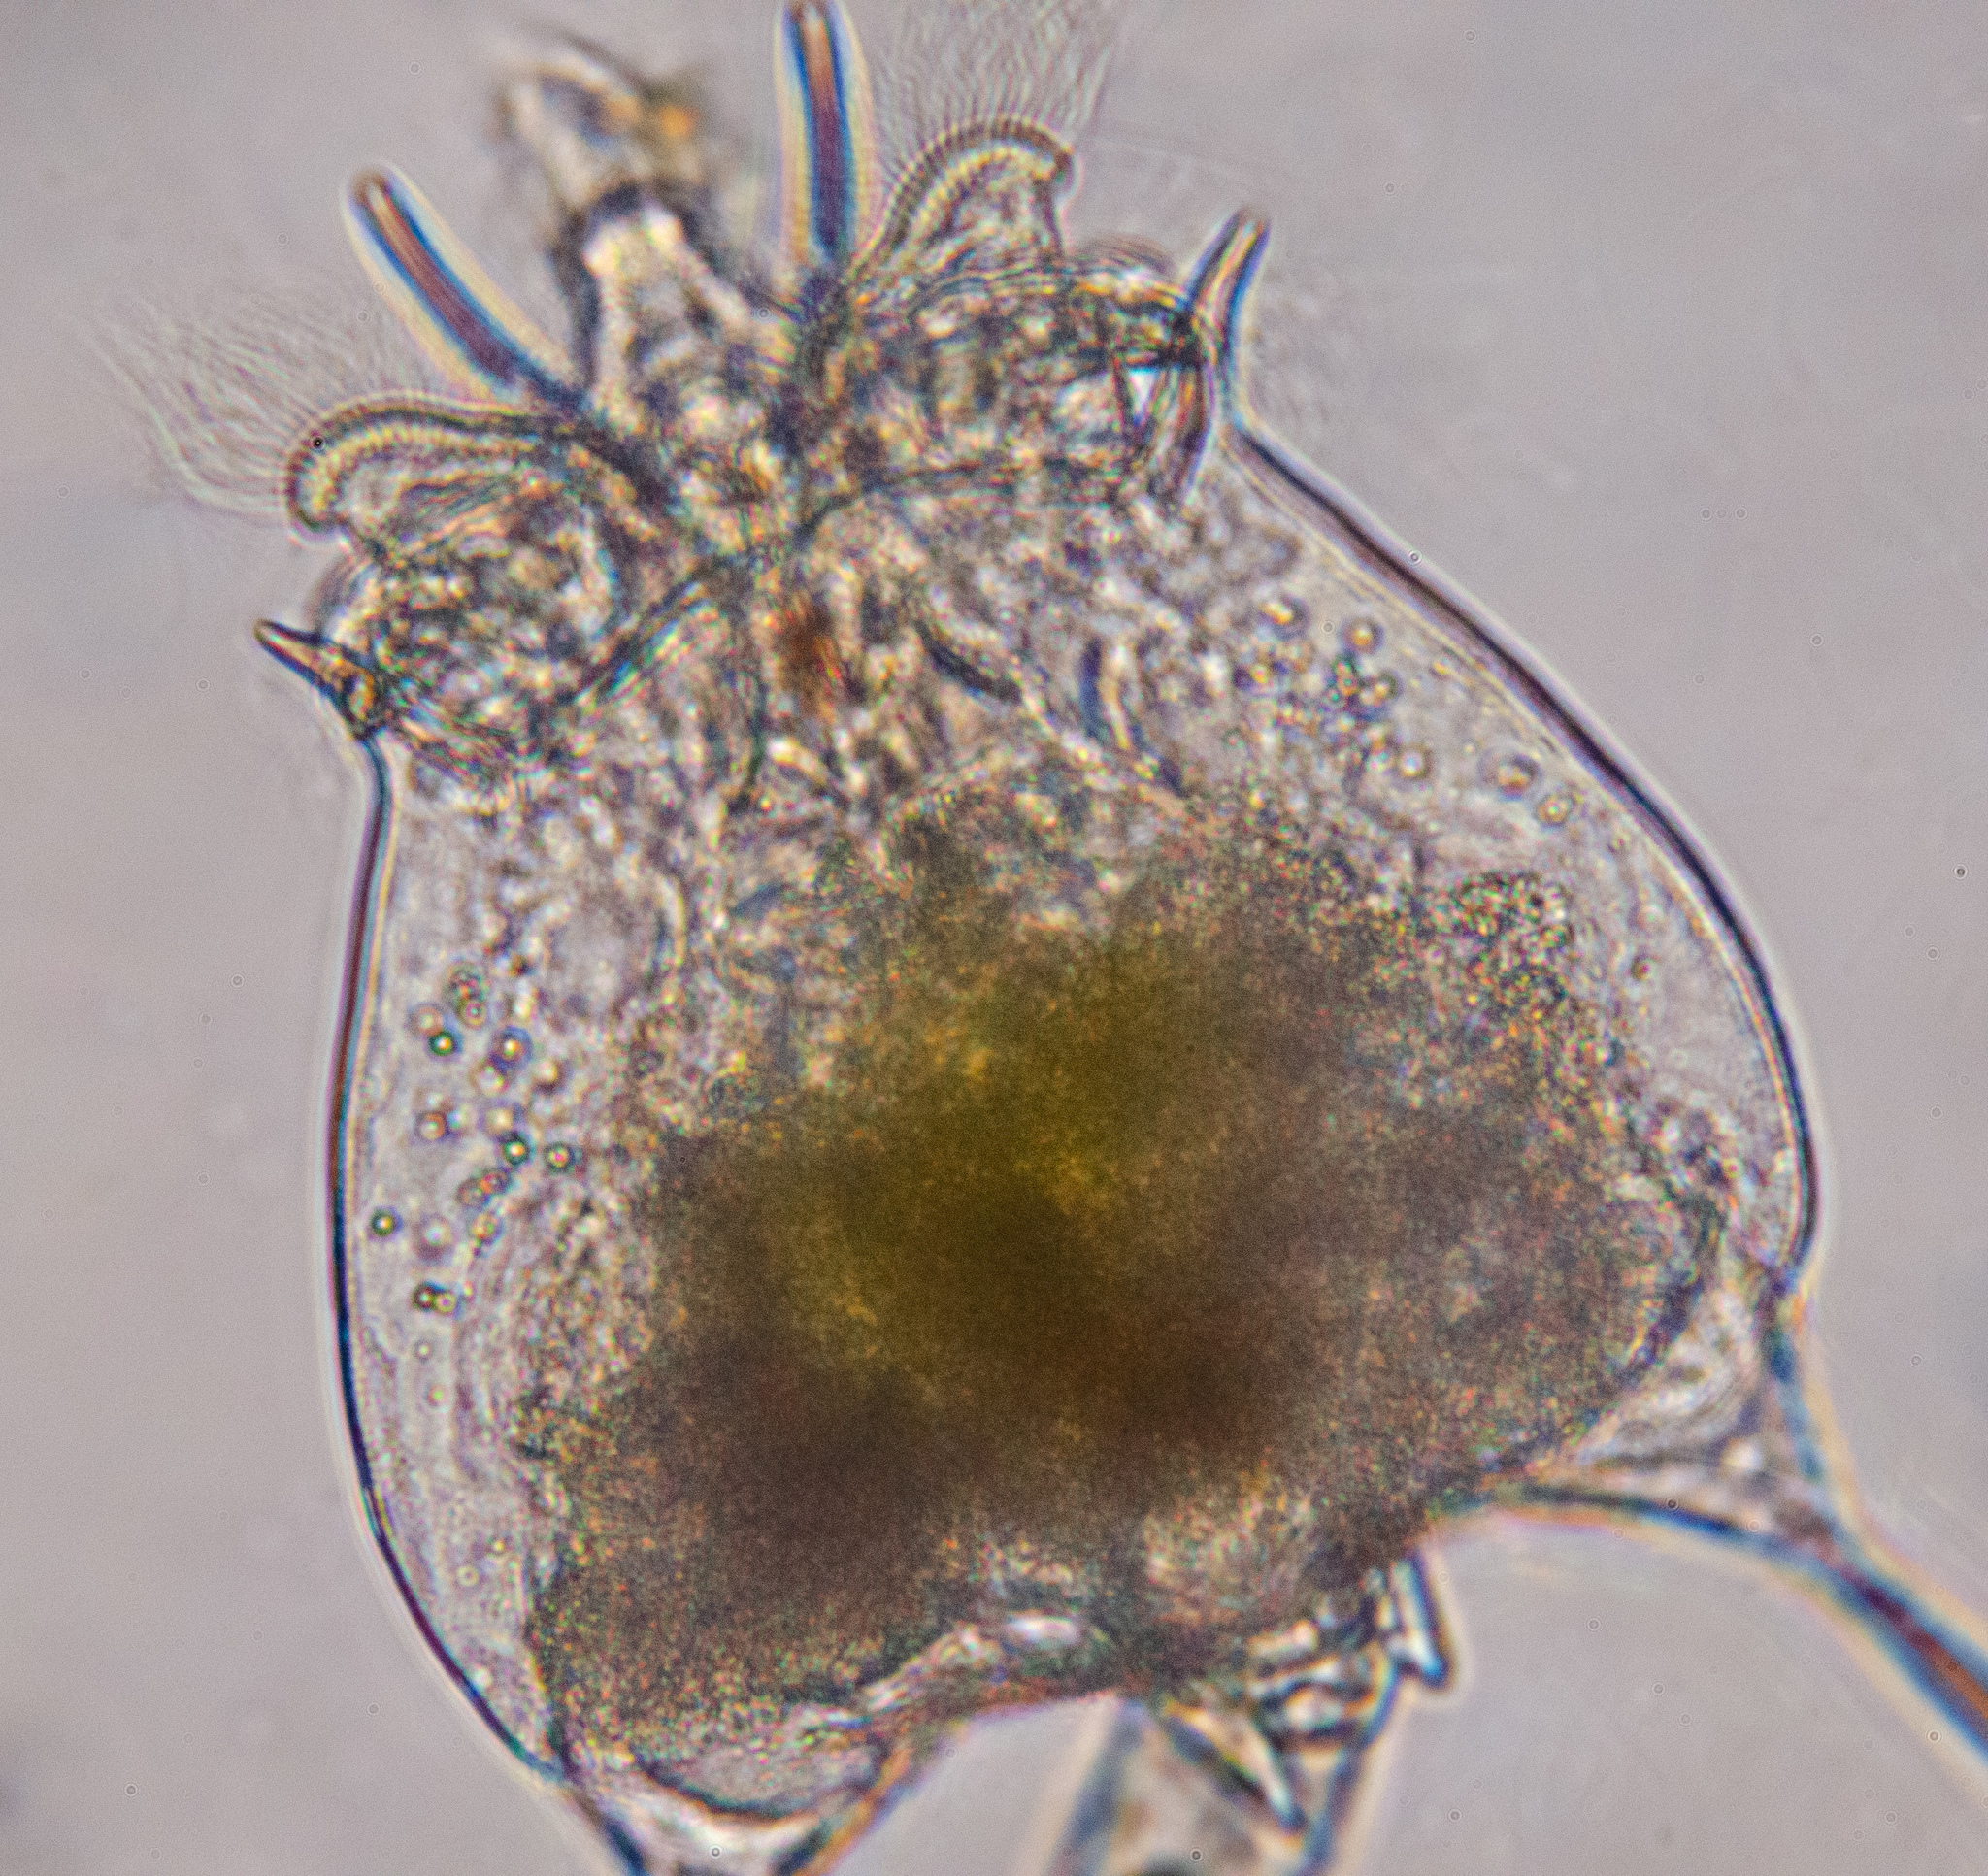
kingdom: Animalia
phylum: Rotifera
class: Eurotatoria
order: Ploima
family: Brachionidae
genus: Brachionus
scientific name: Brachionus quadridentatus
